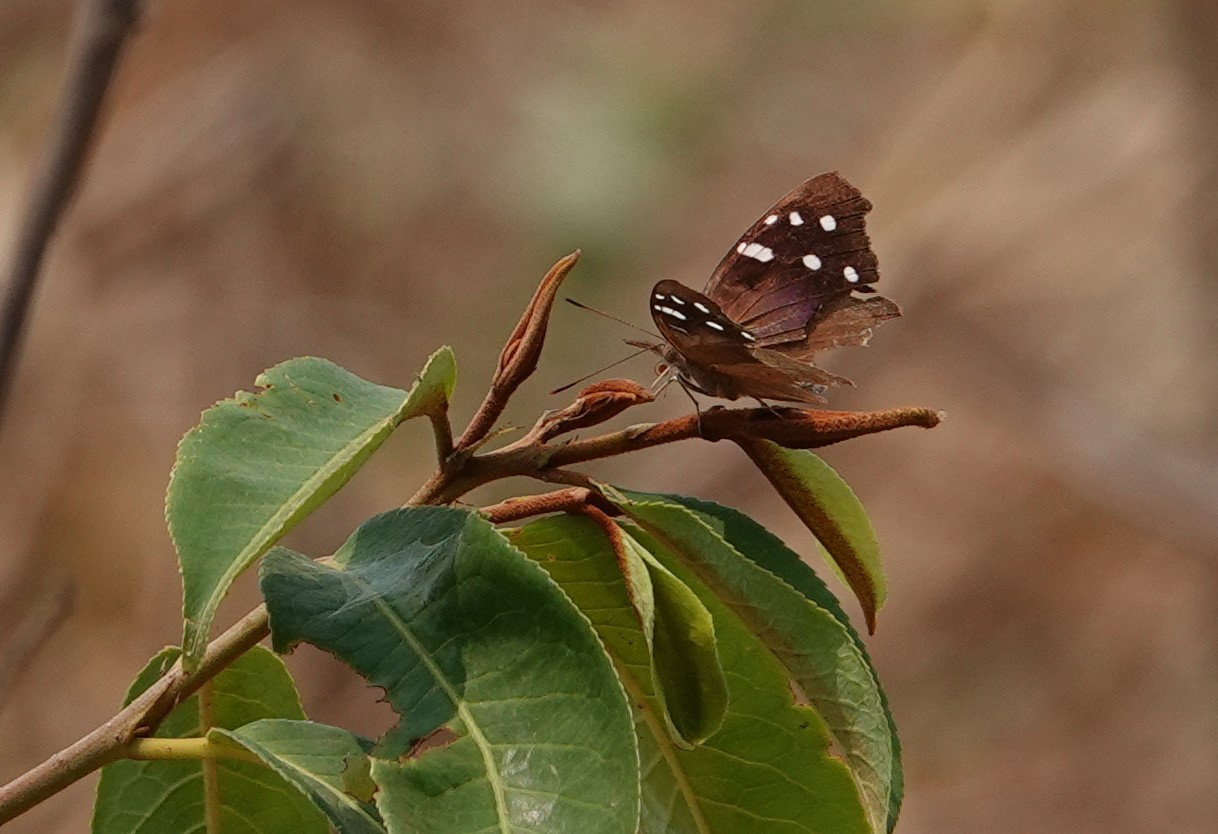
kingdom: Animalia
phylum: Arthropoda
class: Insecta
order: Lepidoptera
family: Nymphalidae
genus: Eunica
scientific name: Eunica cuvierii
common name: Cuvier's purplewing
